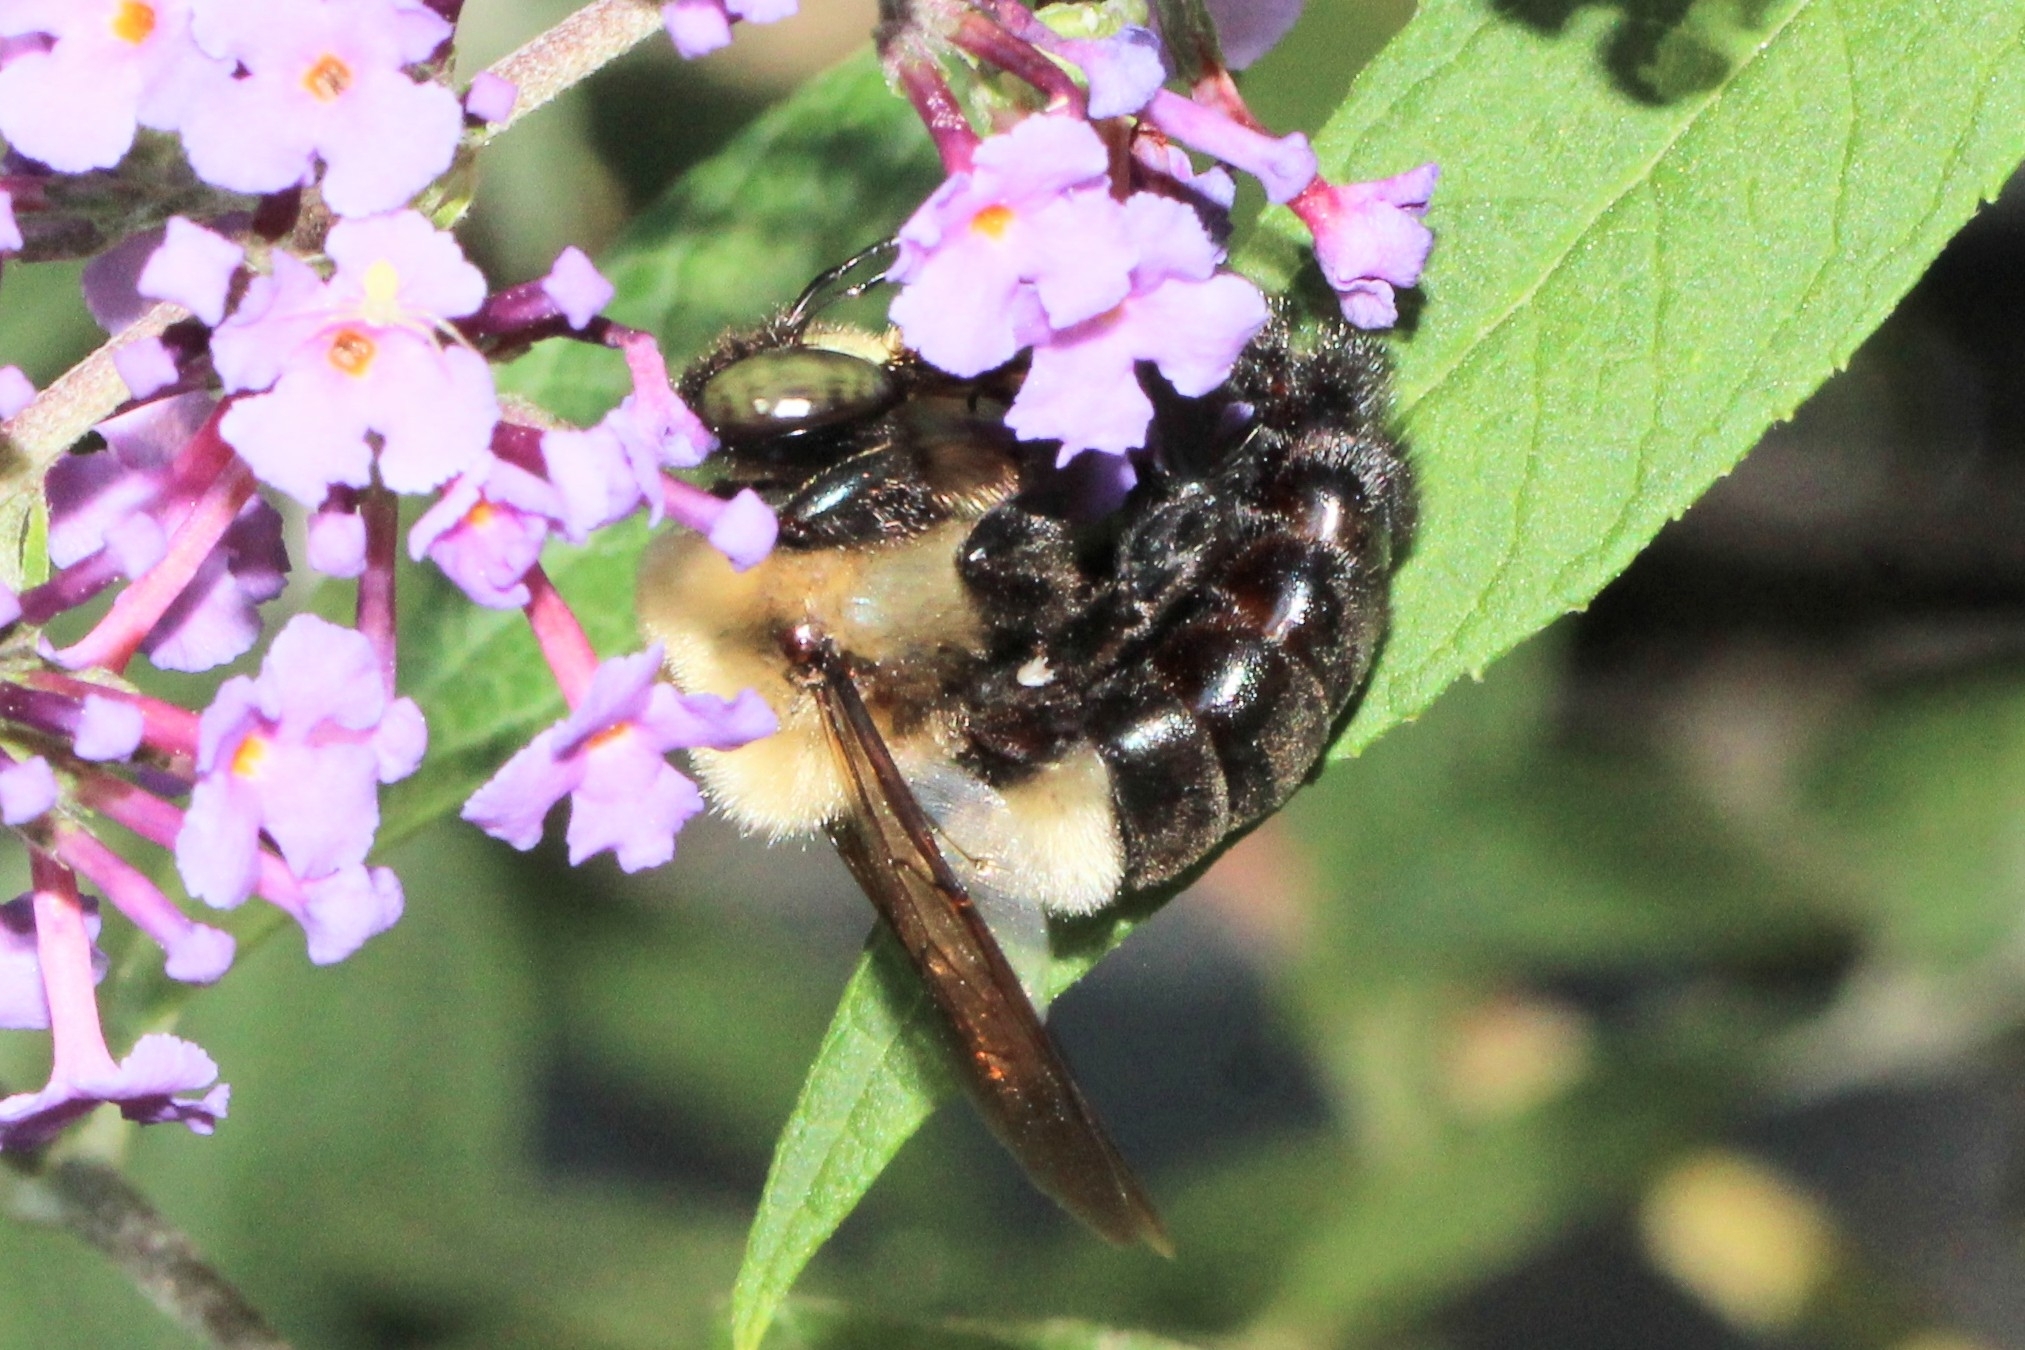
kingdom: Animalia
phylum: Arthropoda
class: Insecta
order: Hymenoptera
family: Apidae
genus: Xylocopa
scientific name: Xylocopa virginica
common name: Carpenter bee
